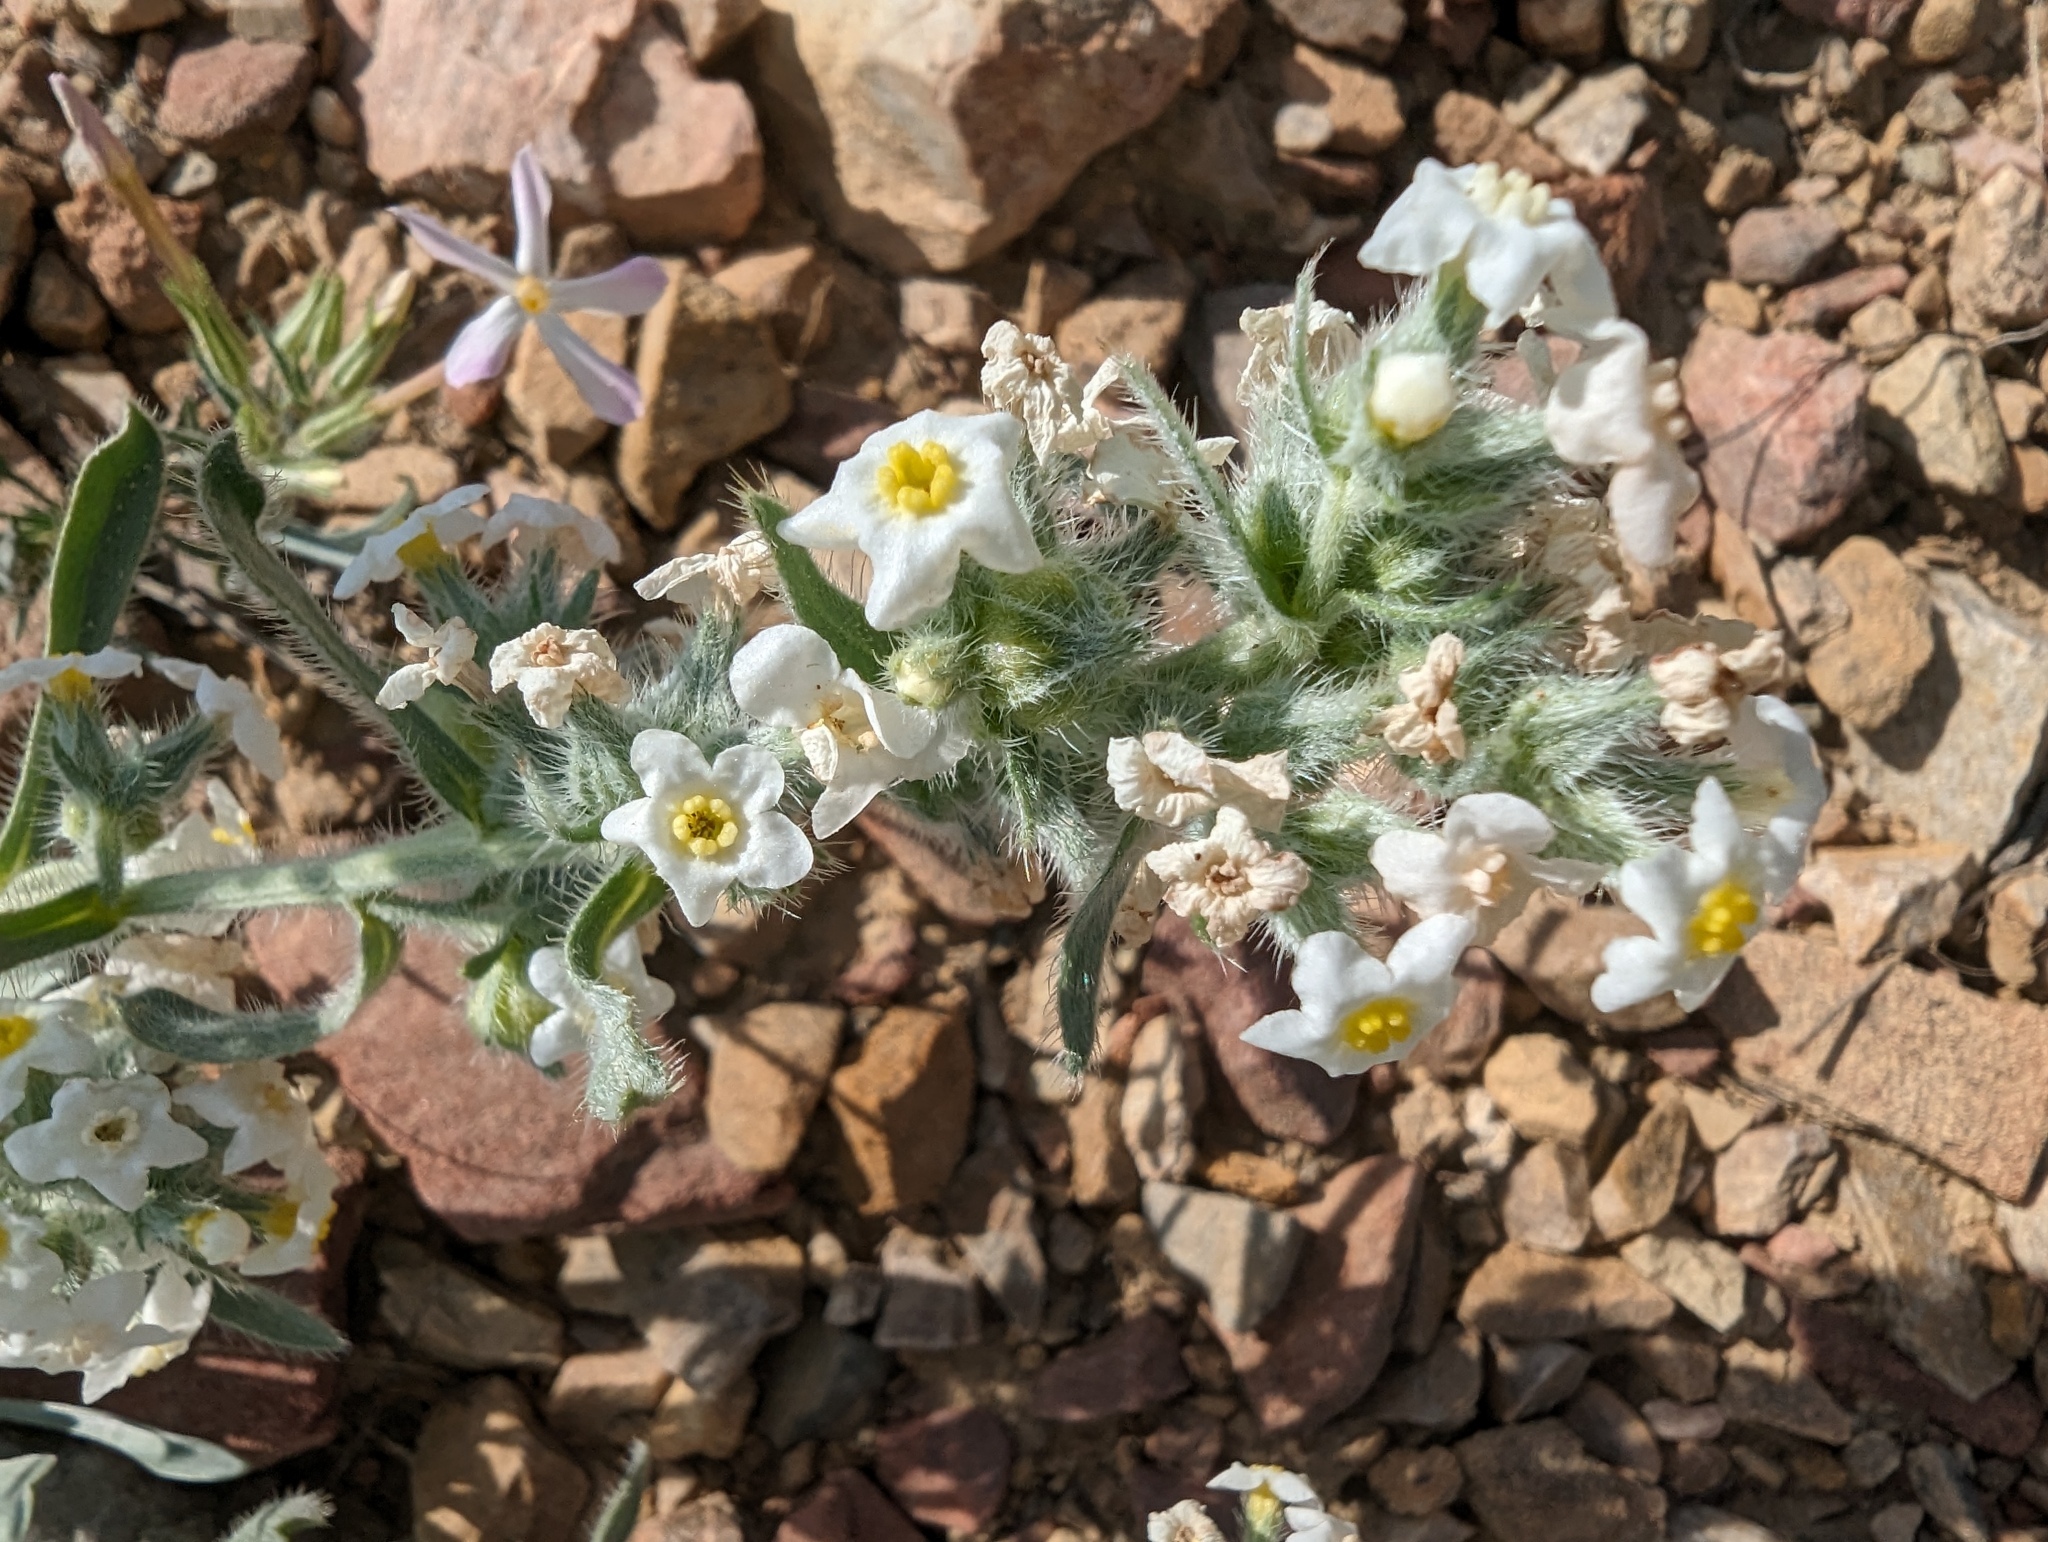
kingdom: Plantae
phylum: Tracheophyta
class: Magnoliopsida
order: Boraginales
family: Boraginaceae
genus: Oreocarya
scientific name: Oreocarya flavoculata
